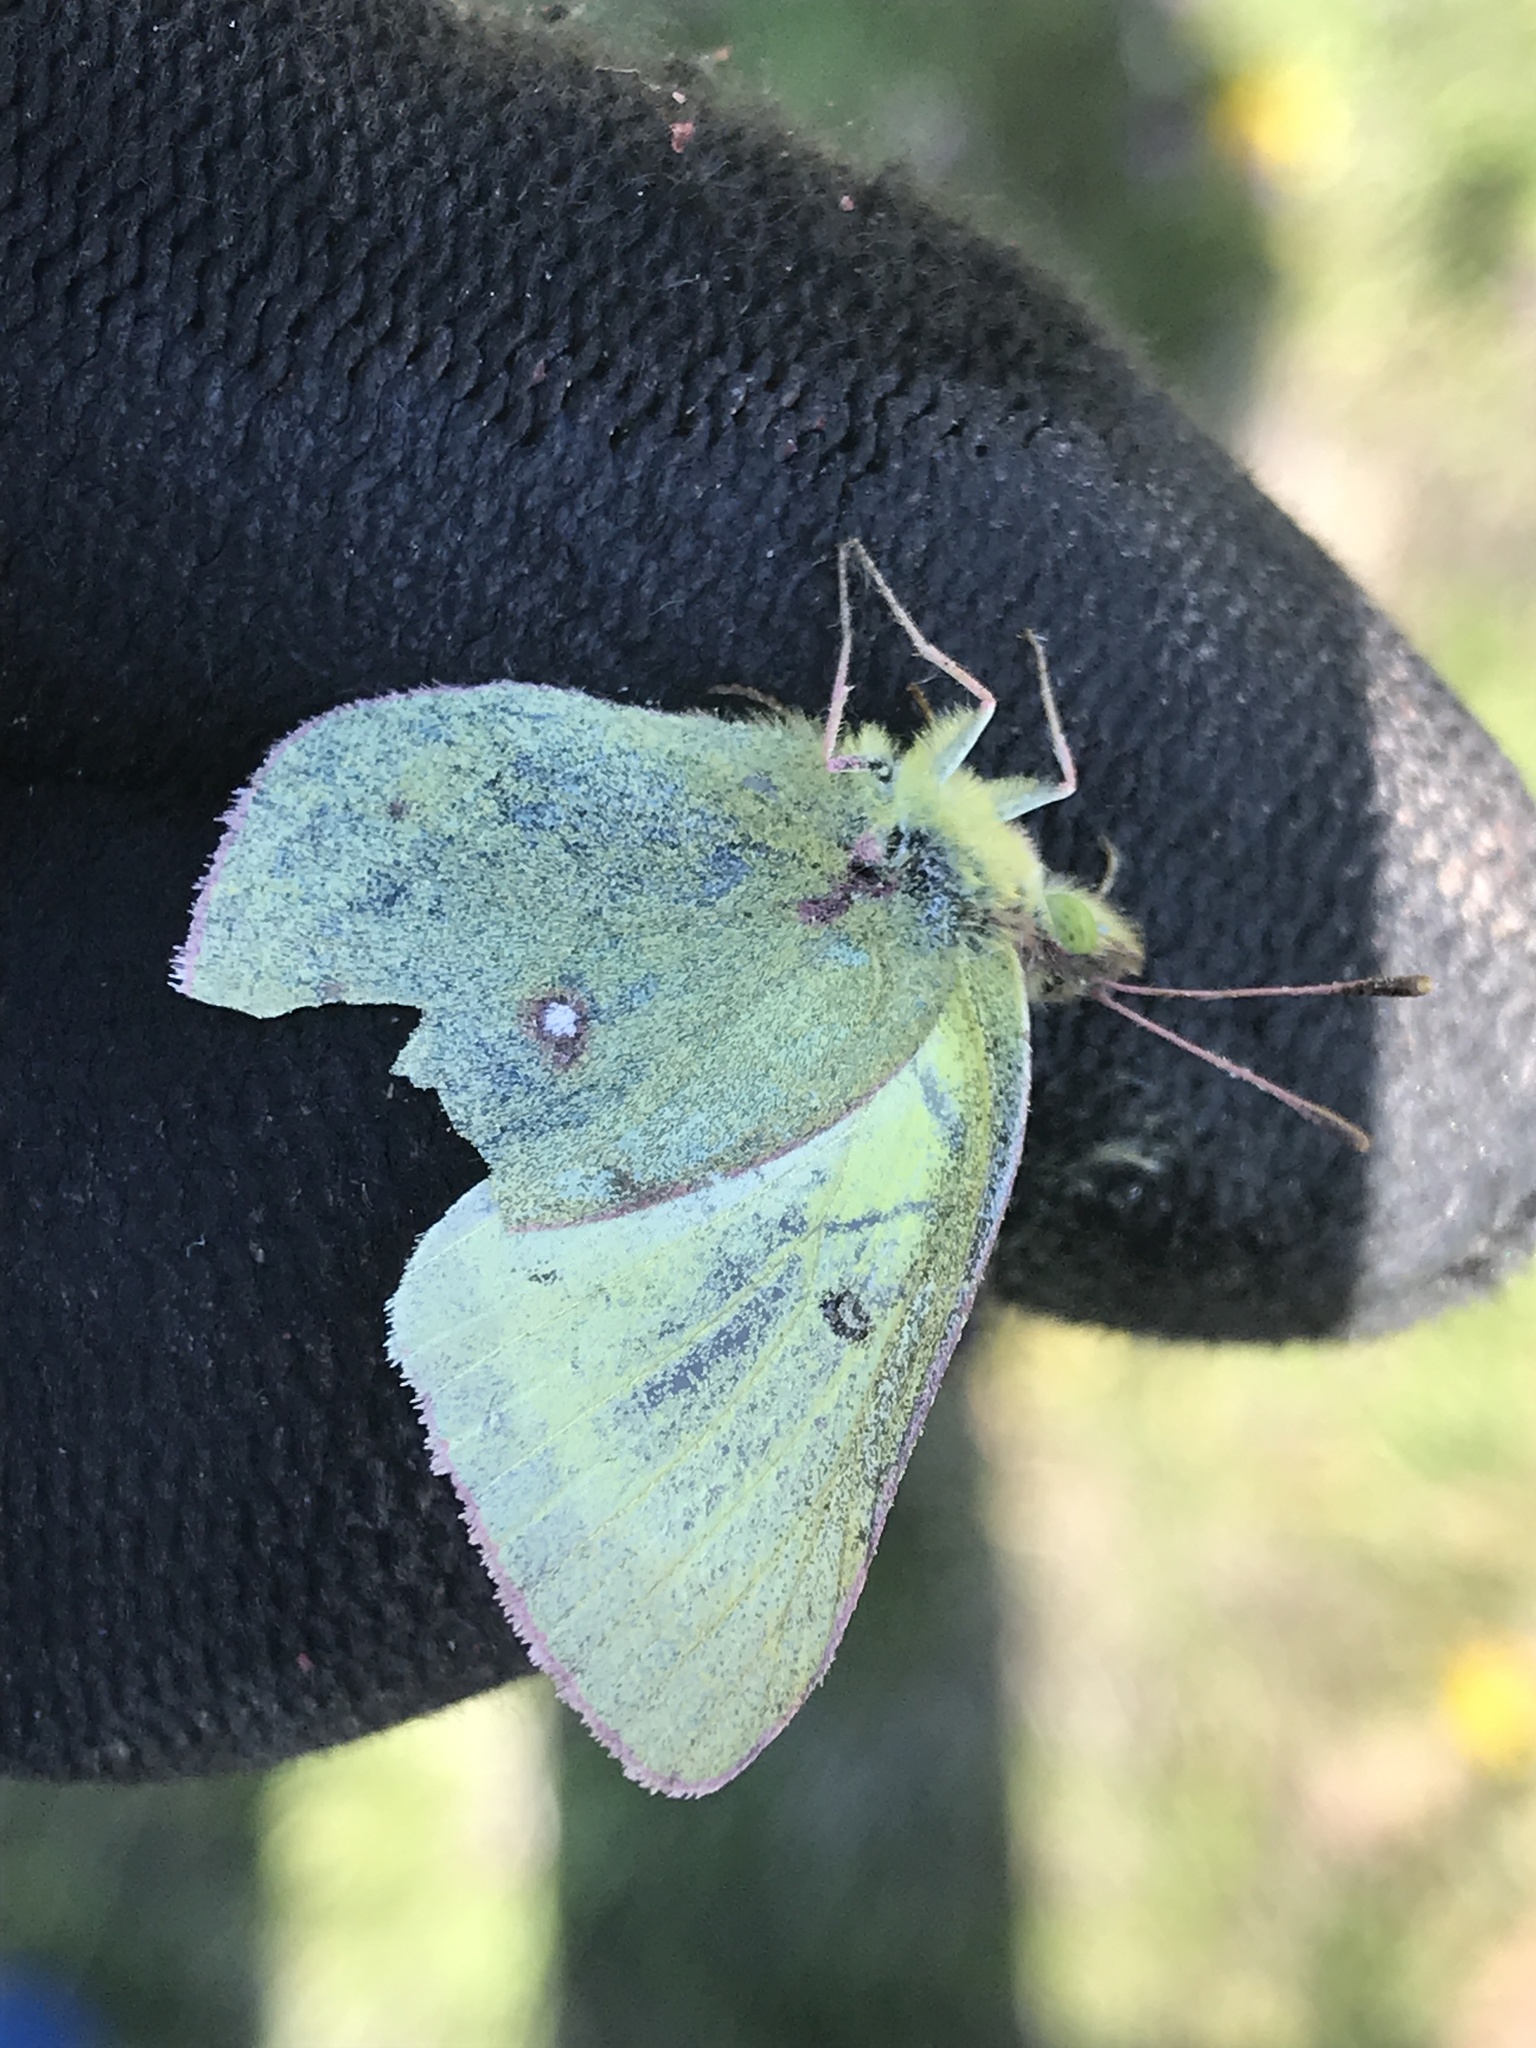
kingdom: Animalia
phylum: Arthropoda
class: Insecta
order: Lepidoptera
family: Pieridae
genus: Colias
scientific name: Colias philodice
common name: Clouded sulphur
